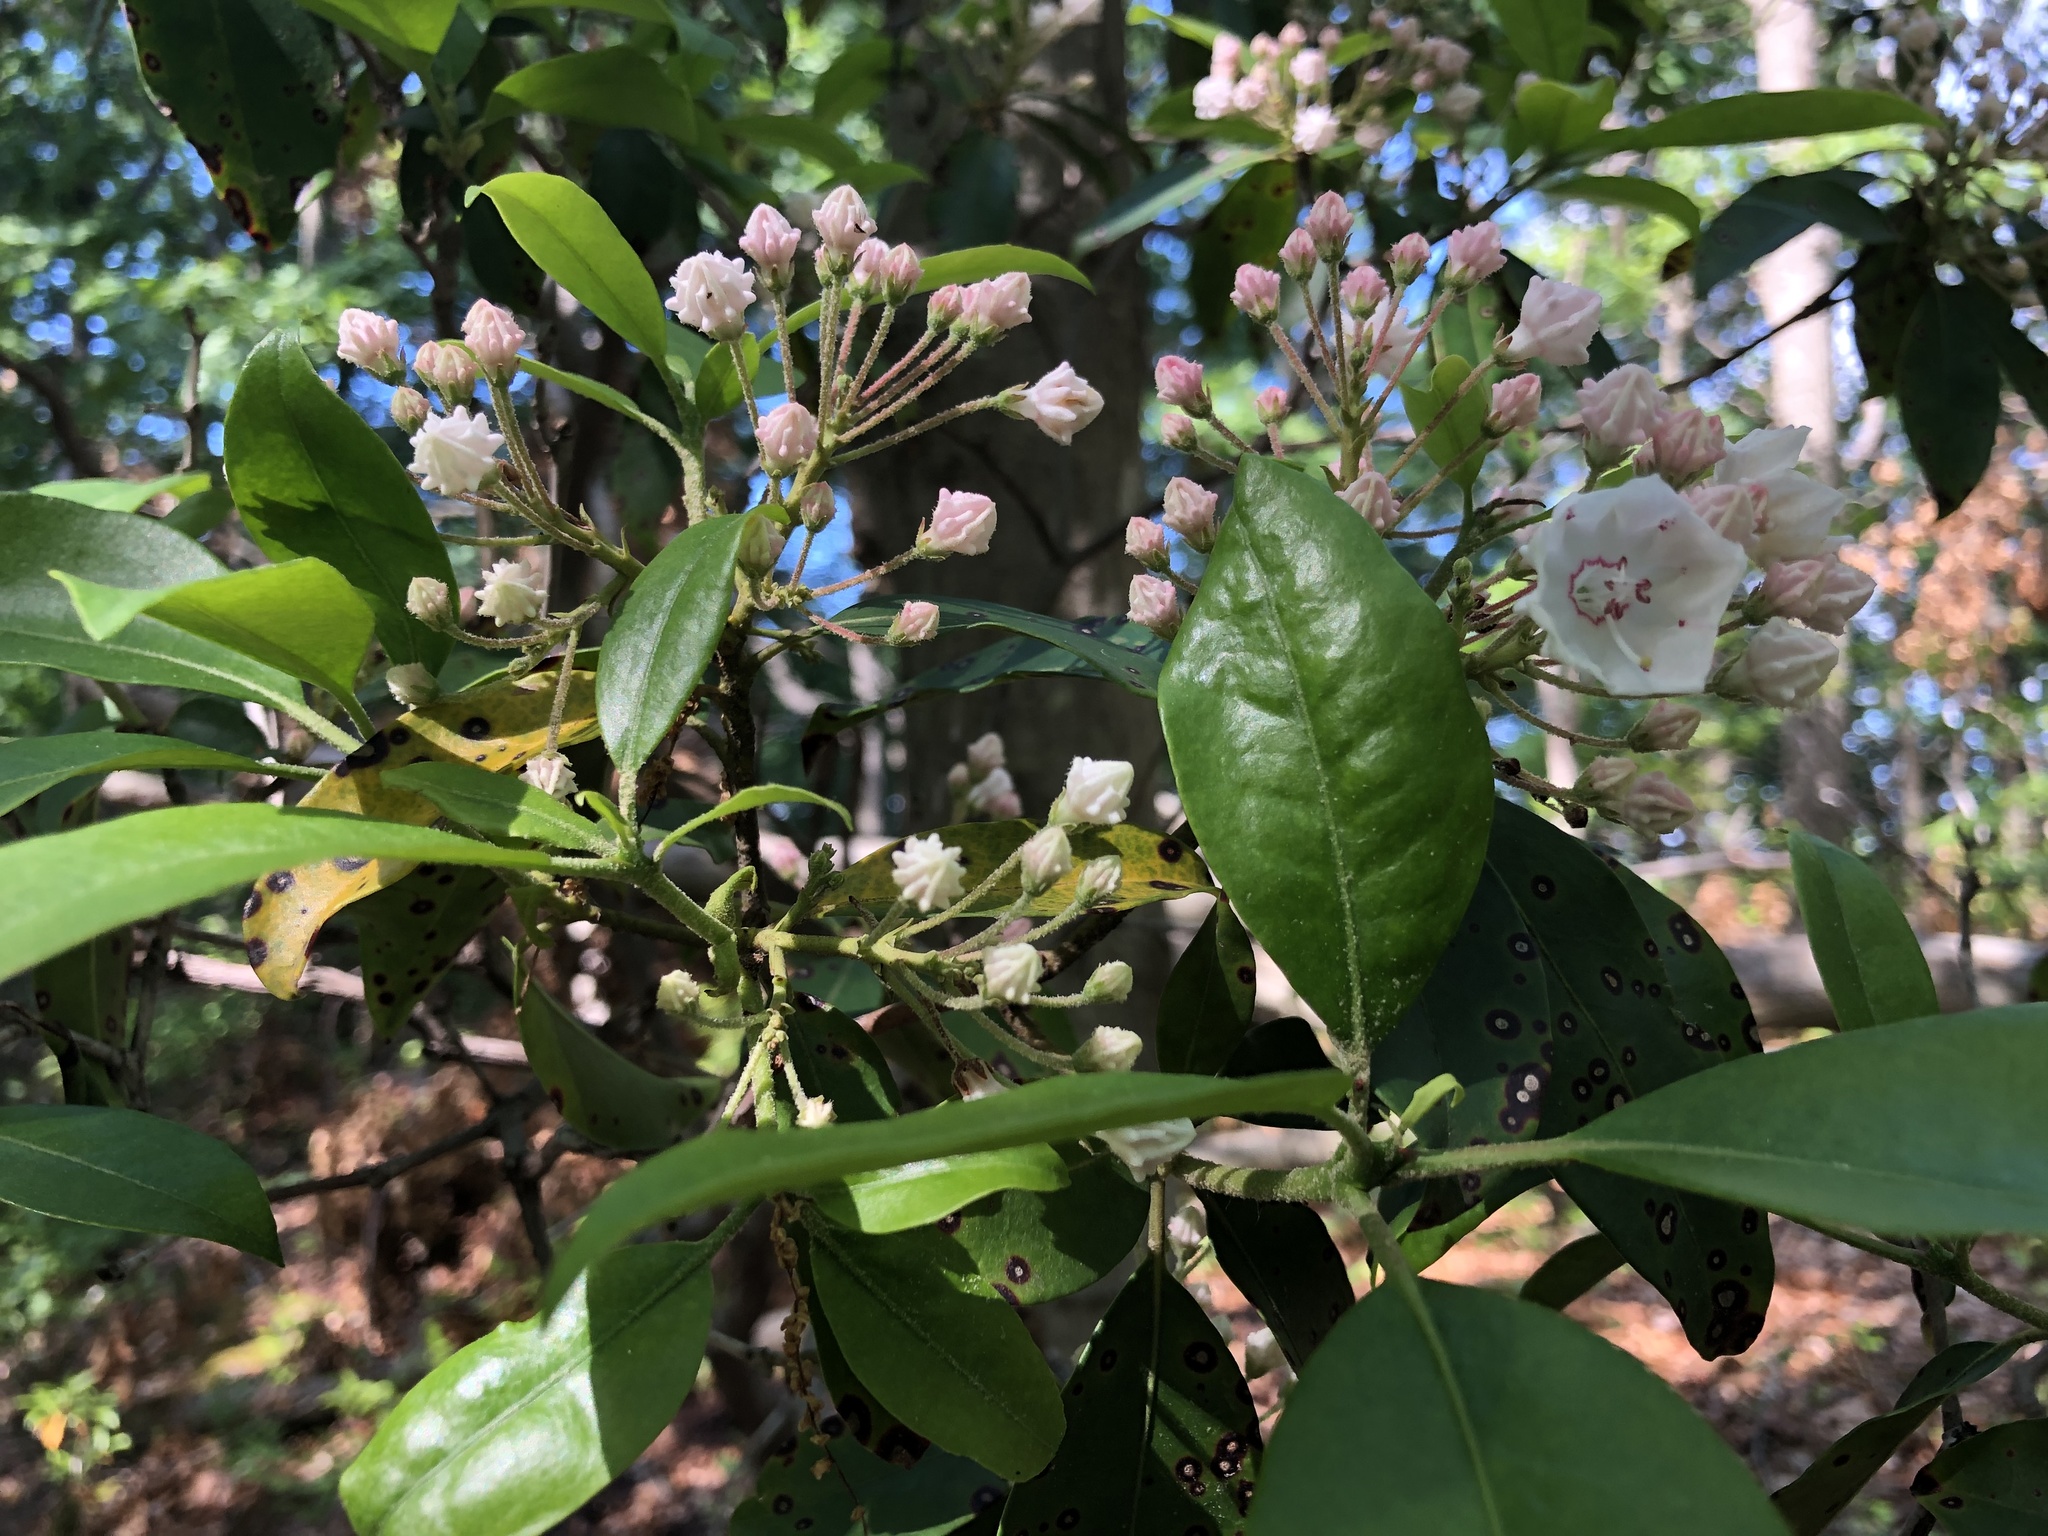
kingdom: Plantae
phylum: Tracheophyta
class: Magnoliopsida
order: Ericales
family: Ericaceae
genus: Kalmia
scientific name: Kalmia latifolia
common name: Mountain-laurel
